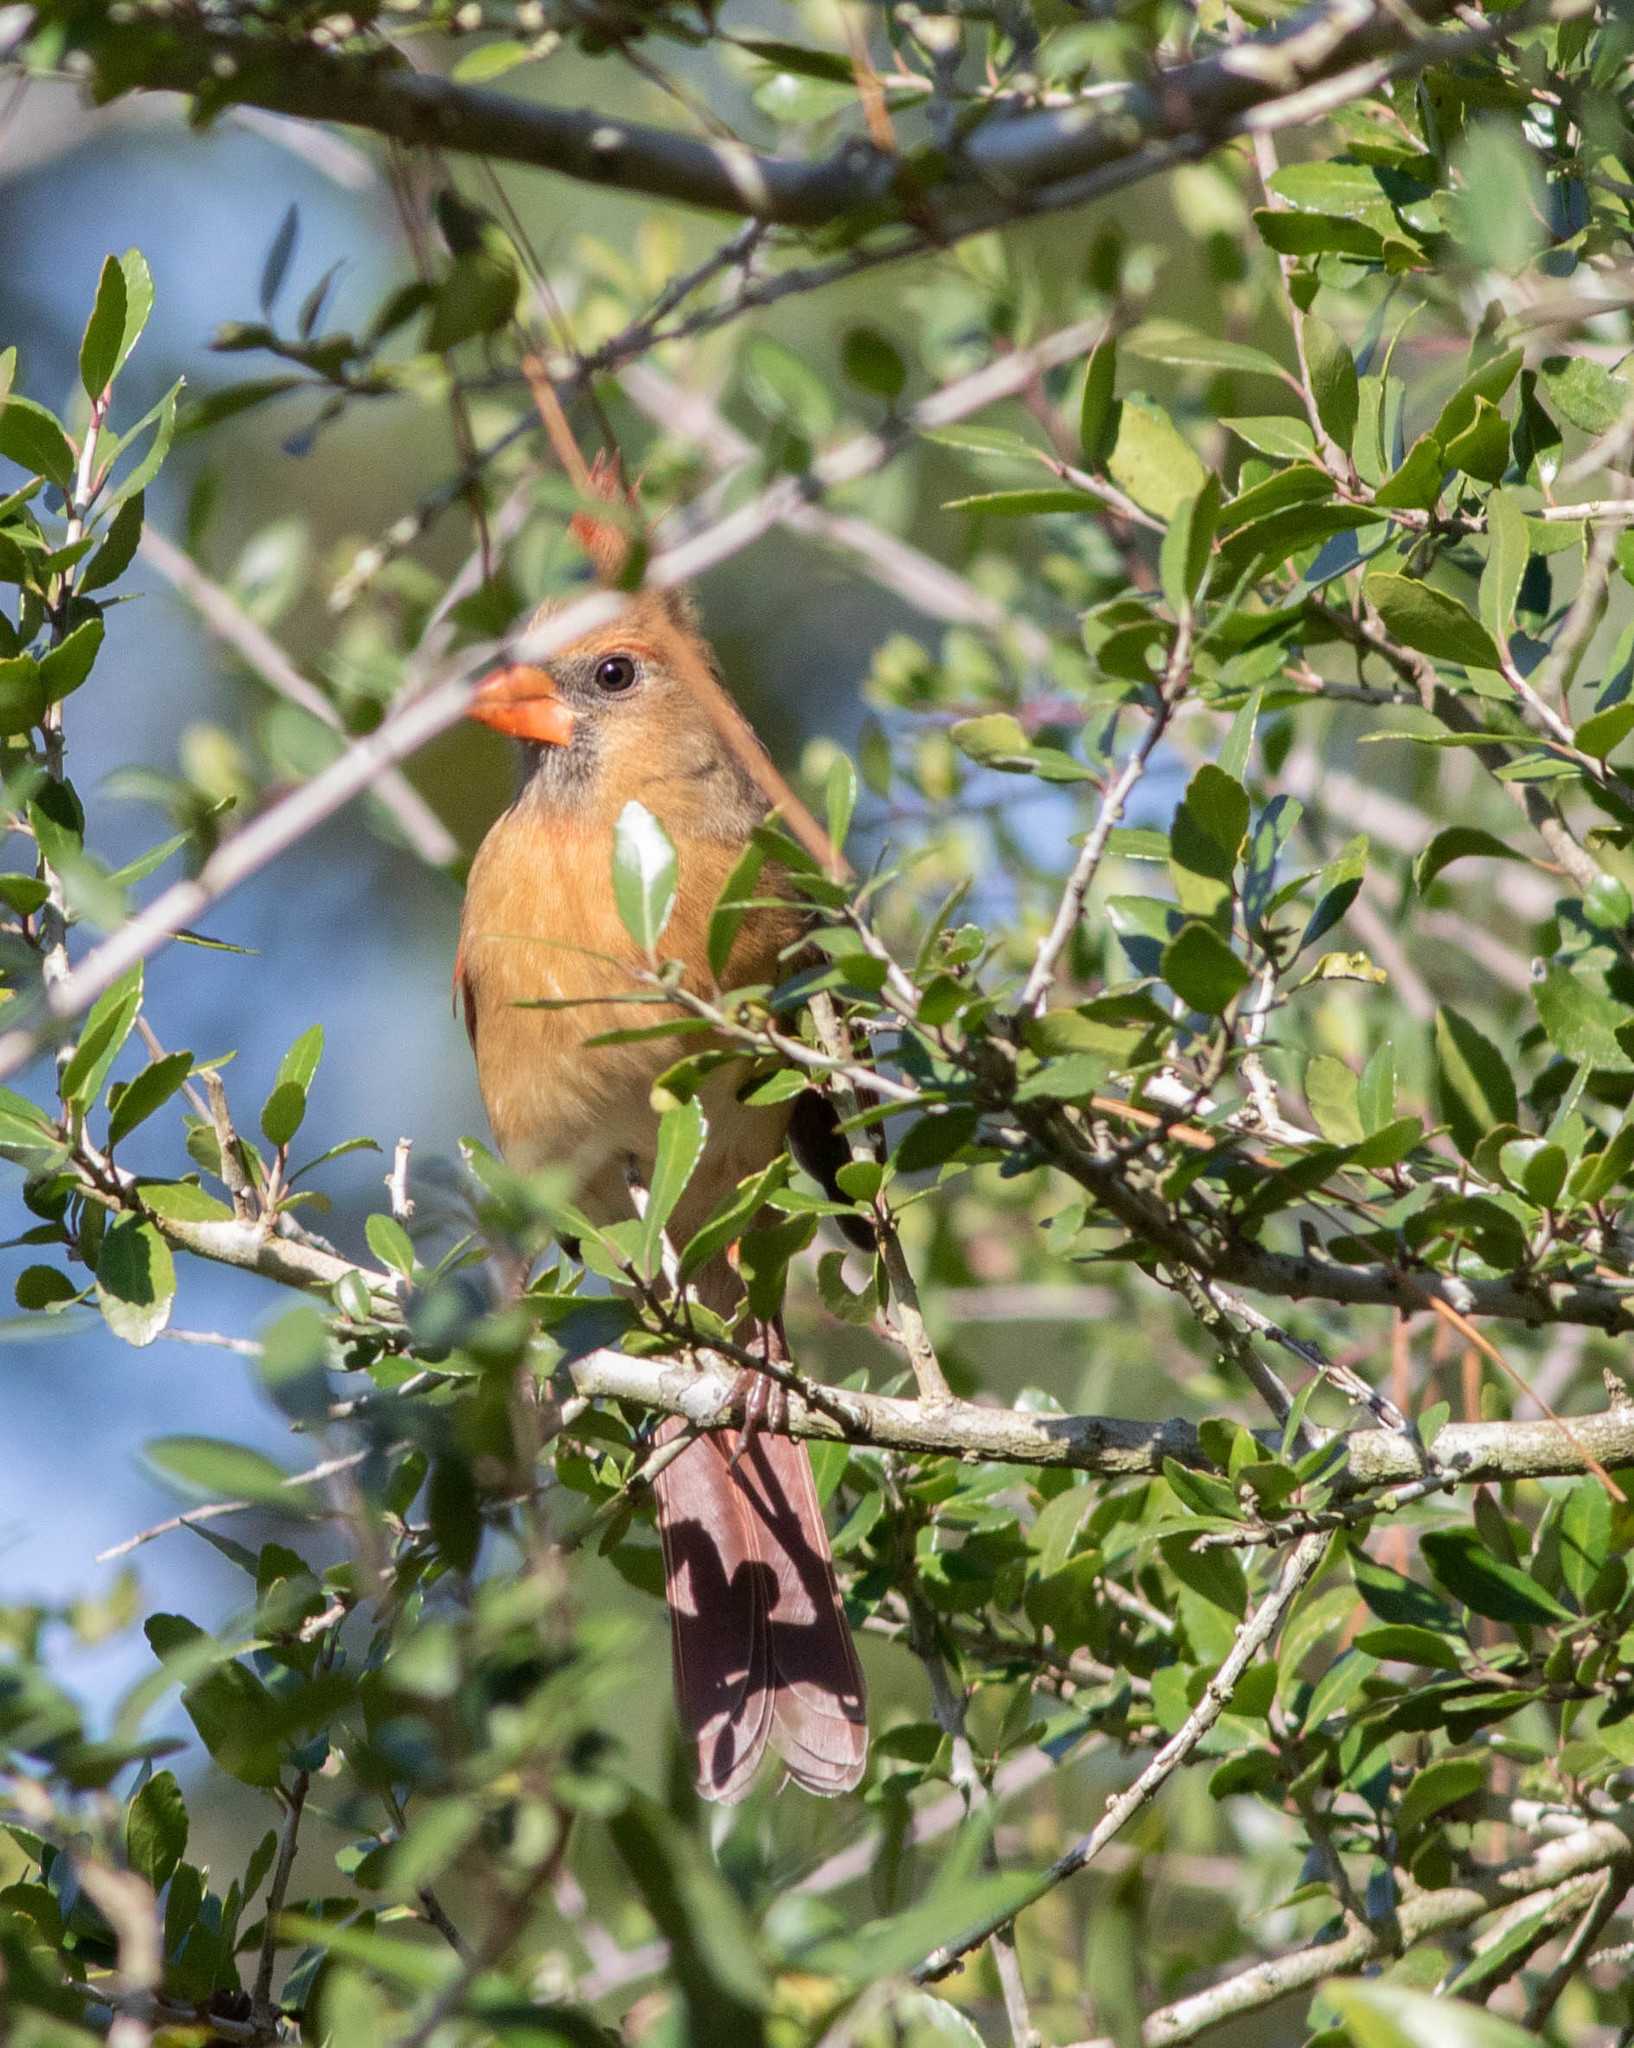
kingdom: Animalia
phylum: Chordata
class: Aves
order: Passeriformes
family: Cardinalidae
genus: Cardinalis
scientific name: Cardinalis cardinalis
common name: Northern cardinal
